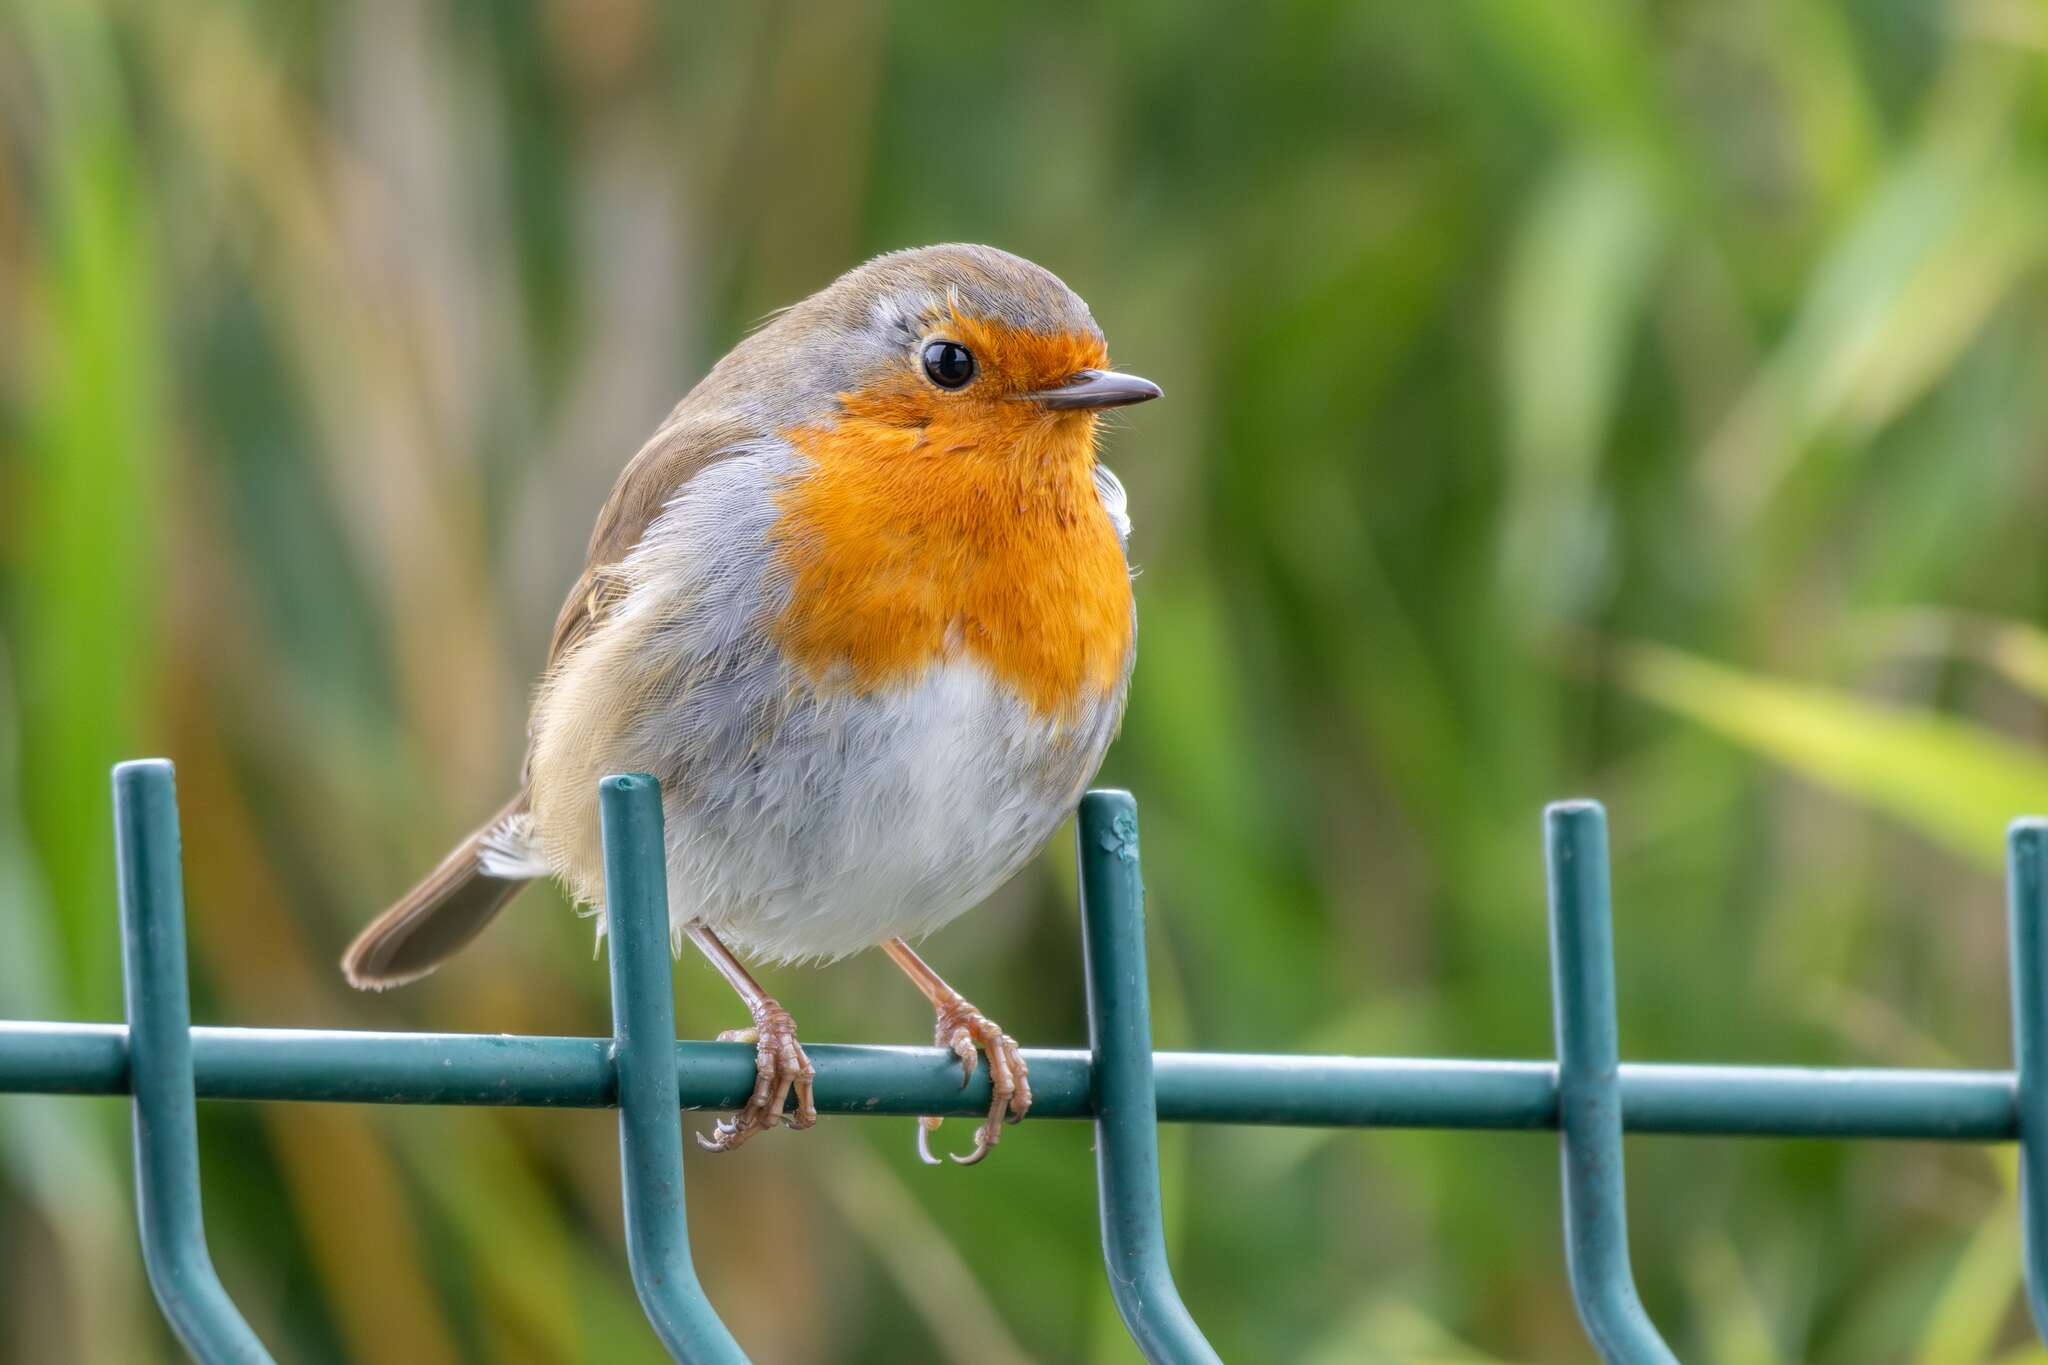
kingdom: Animalia
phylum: Chordata
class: Aves
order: Passeriformes
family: Muscicapidae
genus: Erithacus
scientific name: Erithacus rubecula
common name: European robin
